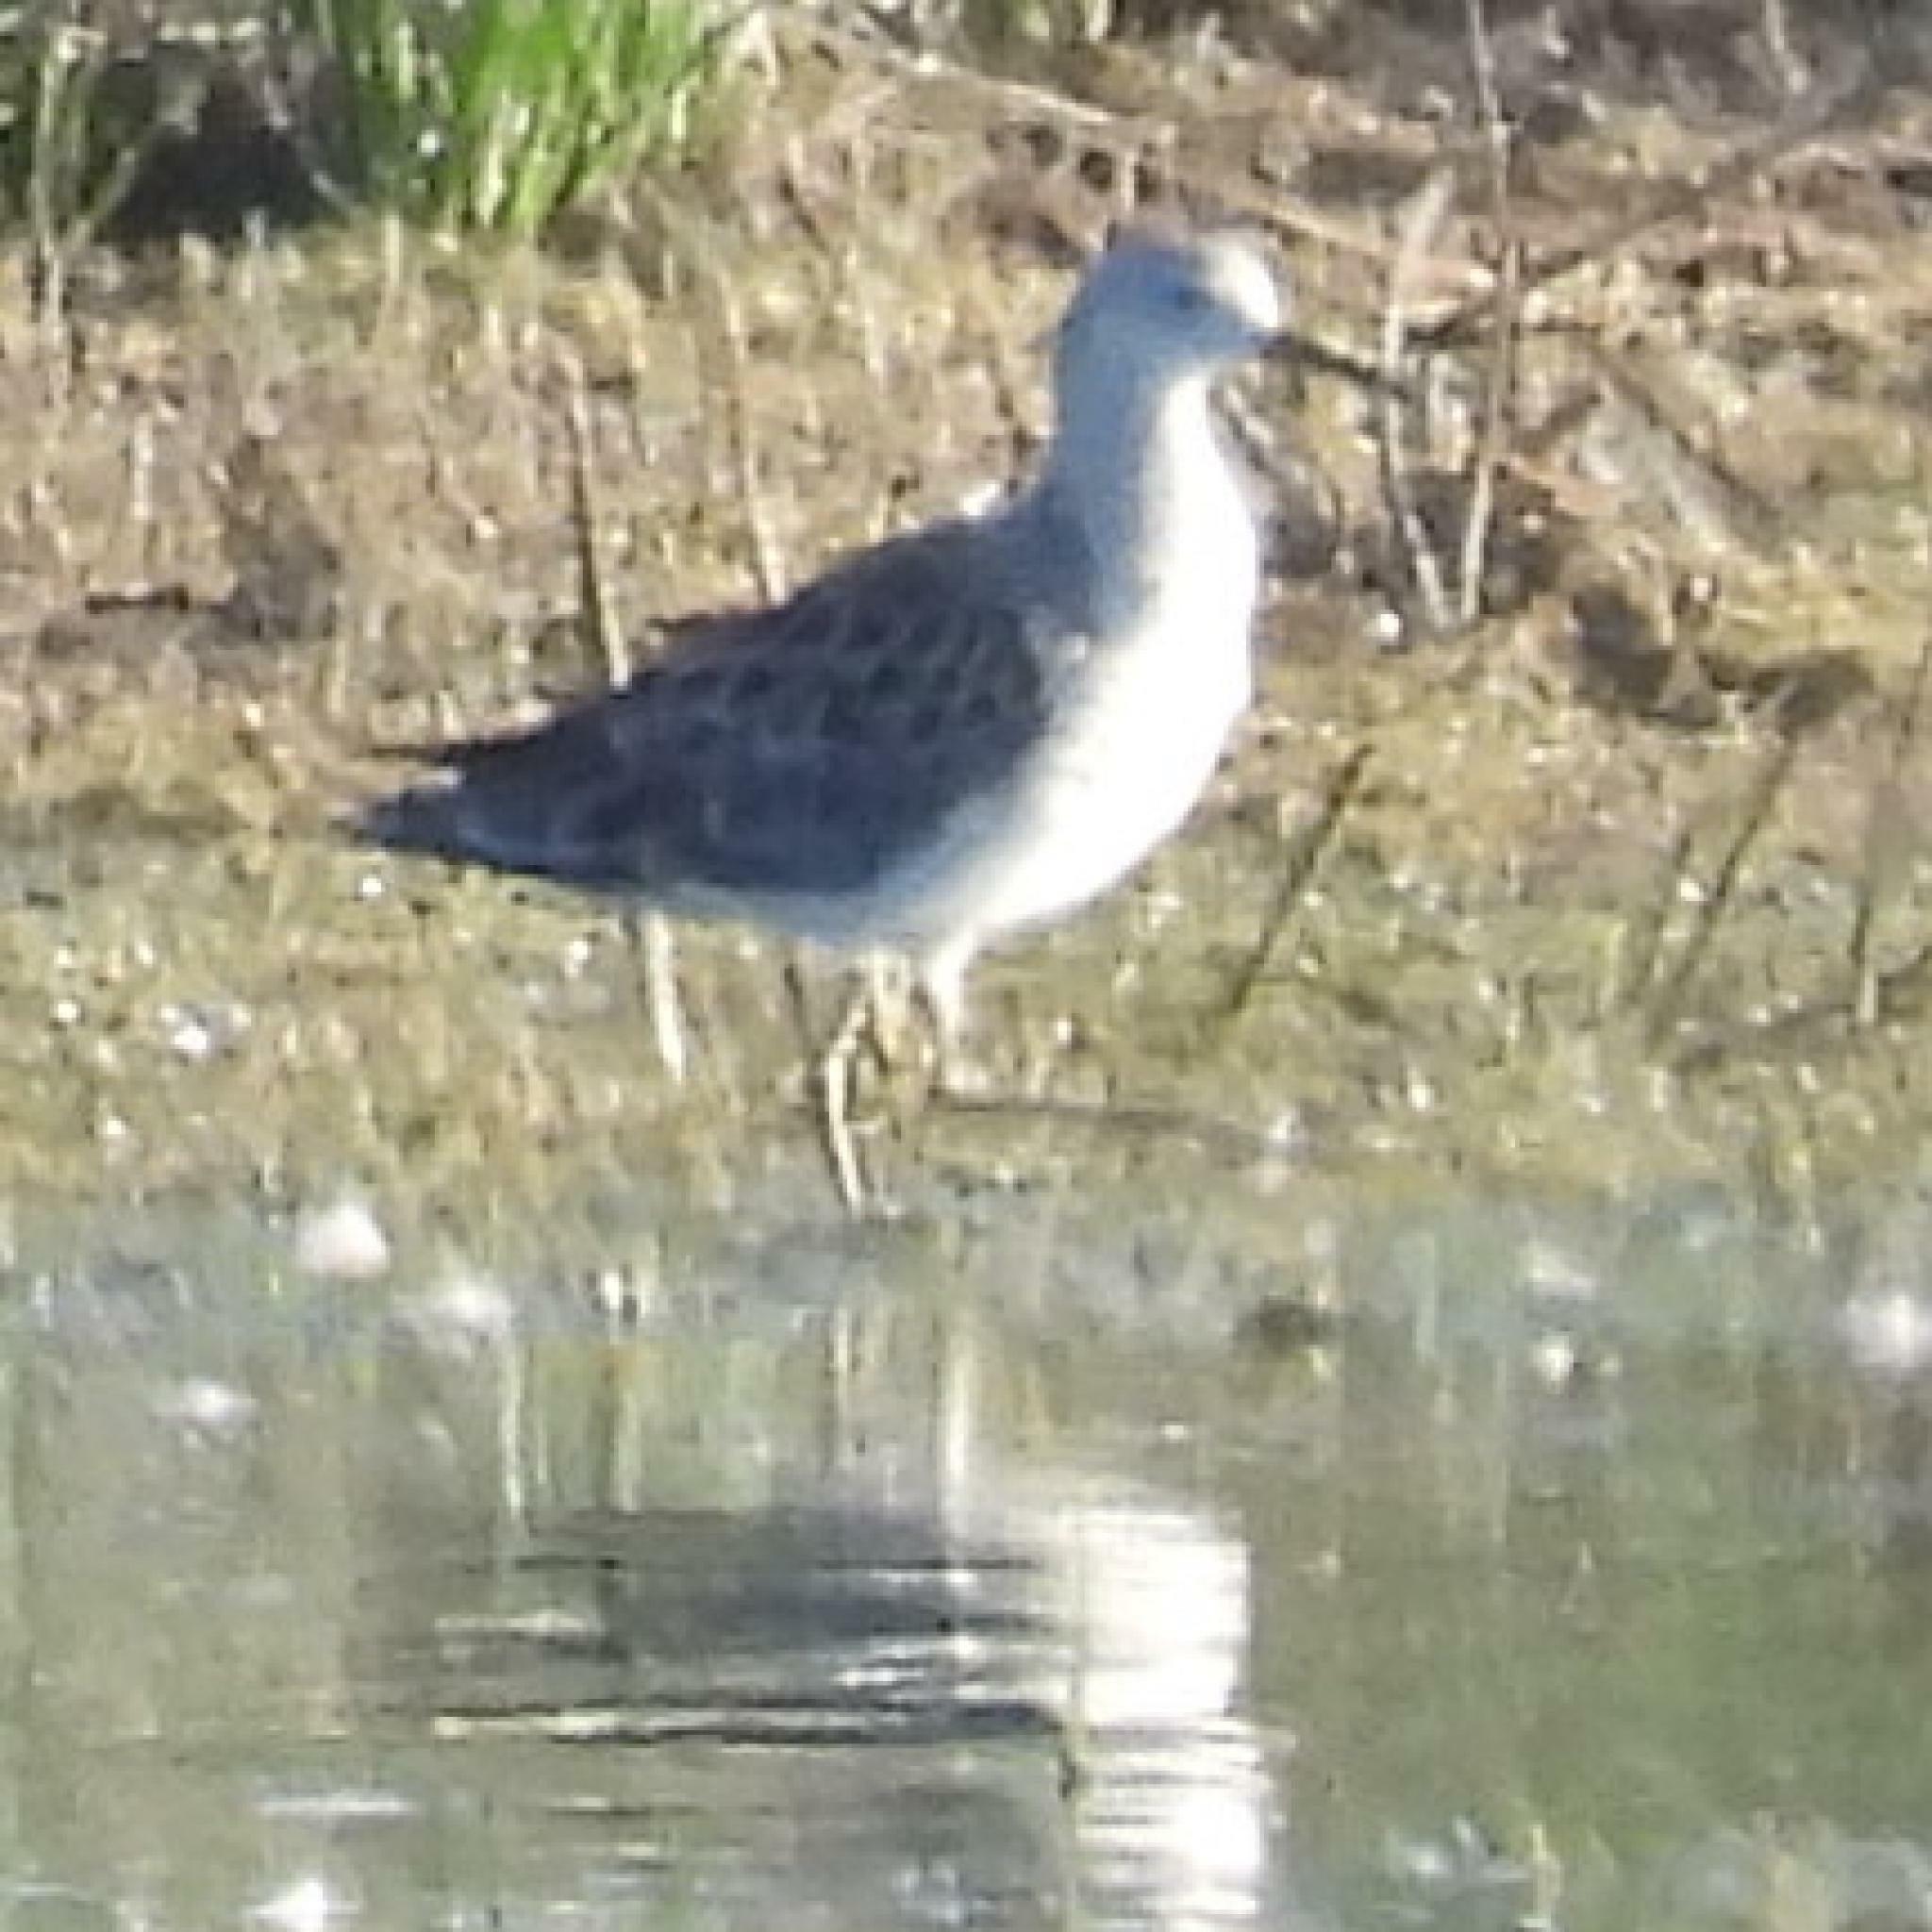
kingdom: Animalia
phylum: Chordata
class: Aves
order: Charadriiformes
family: Scolopacidae
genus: Calidris
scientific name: Calidris pugnax
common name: Ruff
